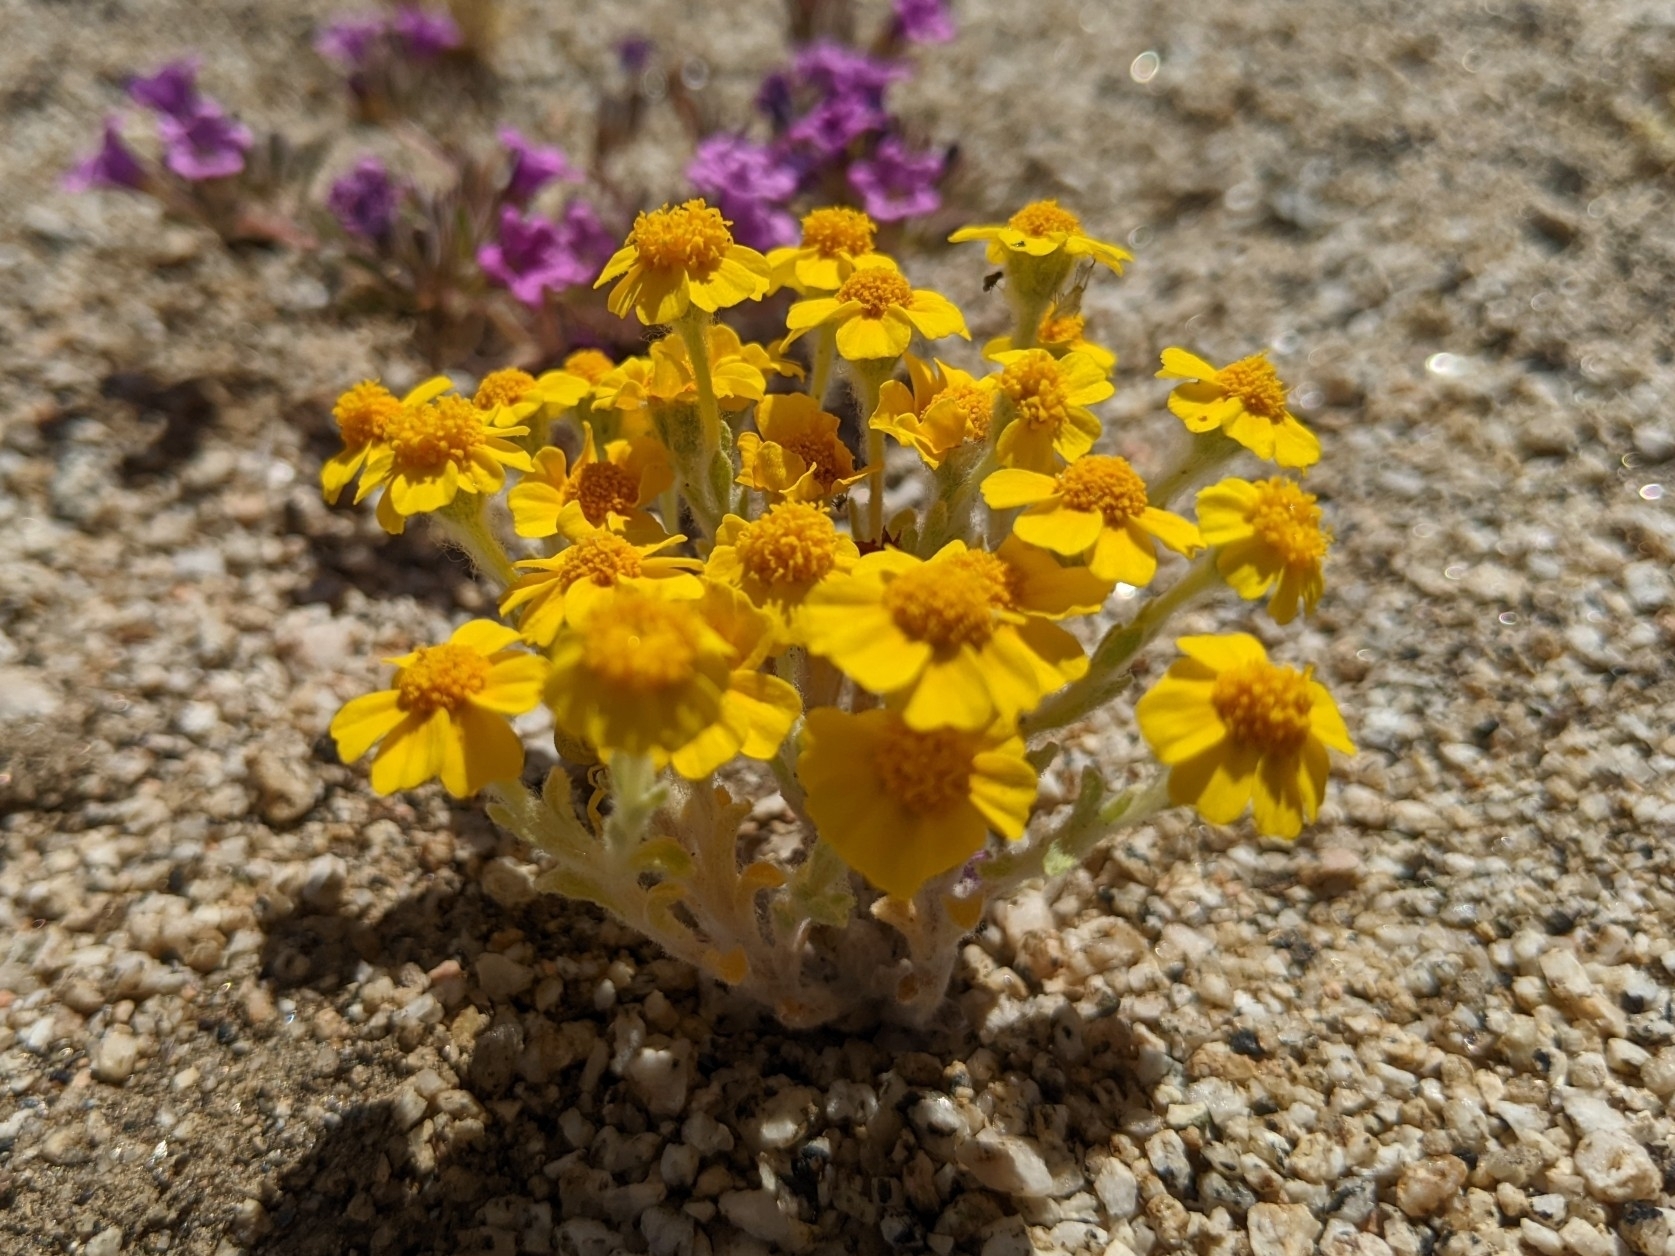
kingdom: Plantae
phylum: Tracheophyta
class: Magnoliopsida
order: Asterales
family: Asteraceae
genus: Eriophyllum
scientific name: Eriophyllum wallacei
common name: Wallace's woolly daisy
